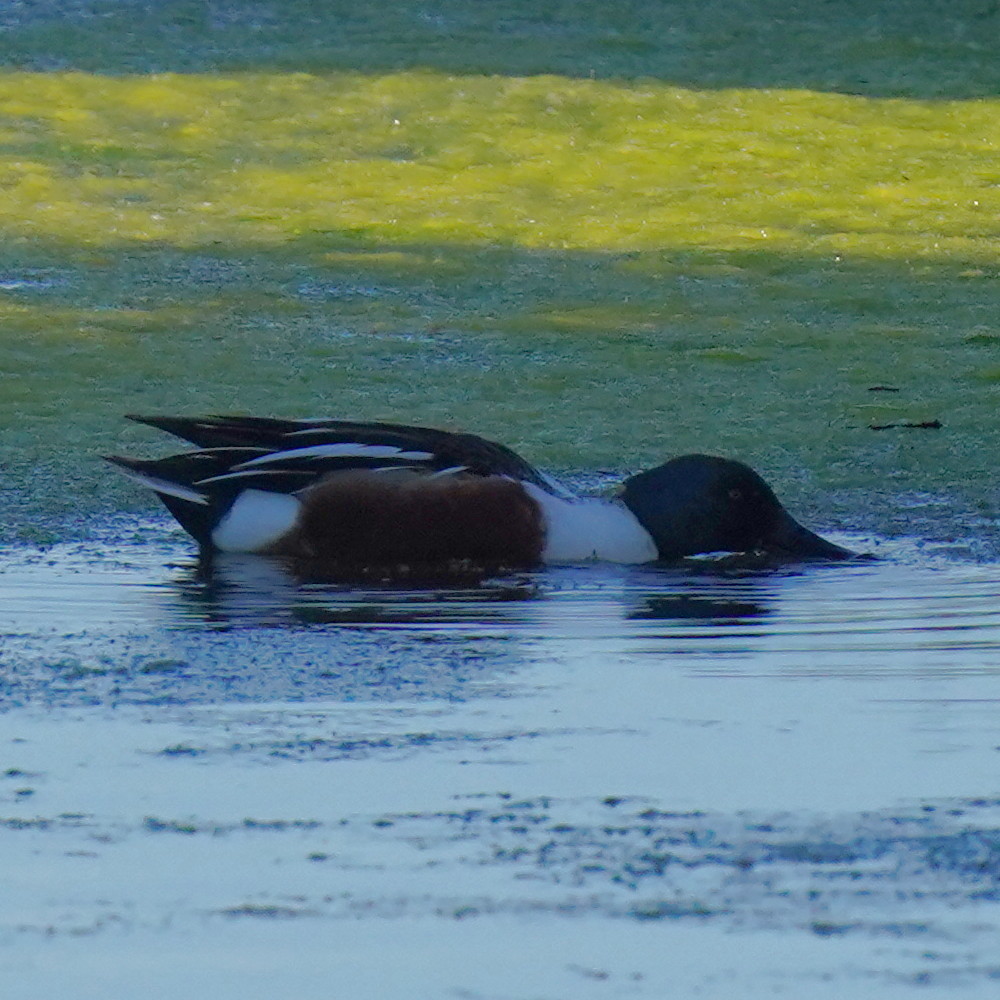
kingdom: Animalia
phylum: Chordata
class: Aves
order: Anseriformes
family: Anatidae
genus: Spatula
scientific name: Spatula clypeata
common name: Northern shoveler
